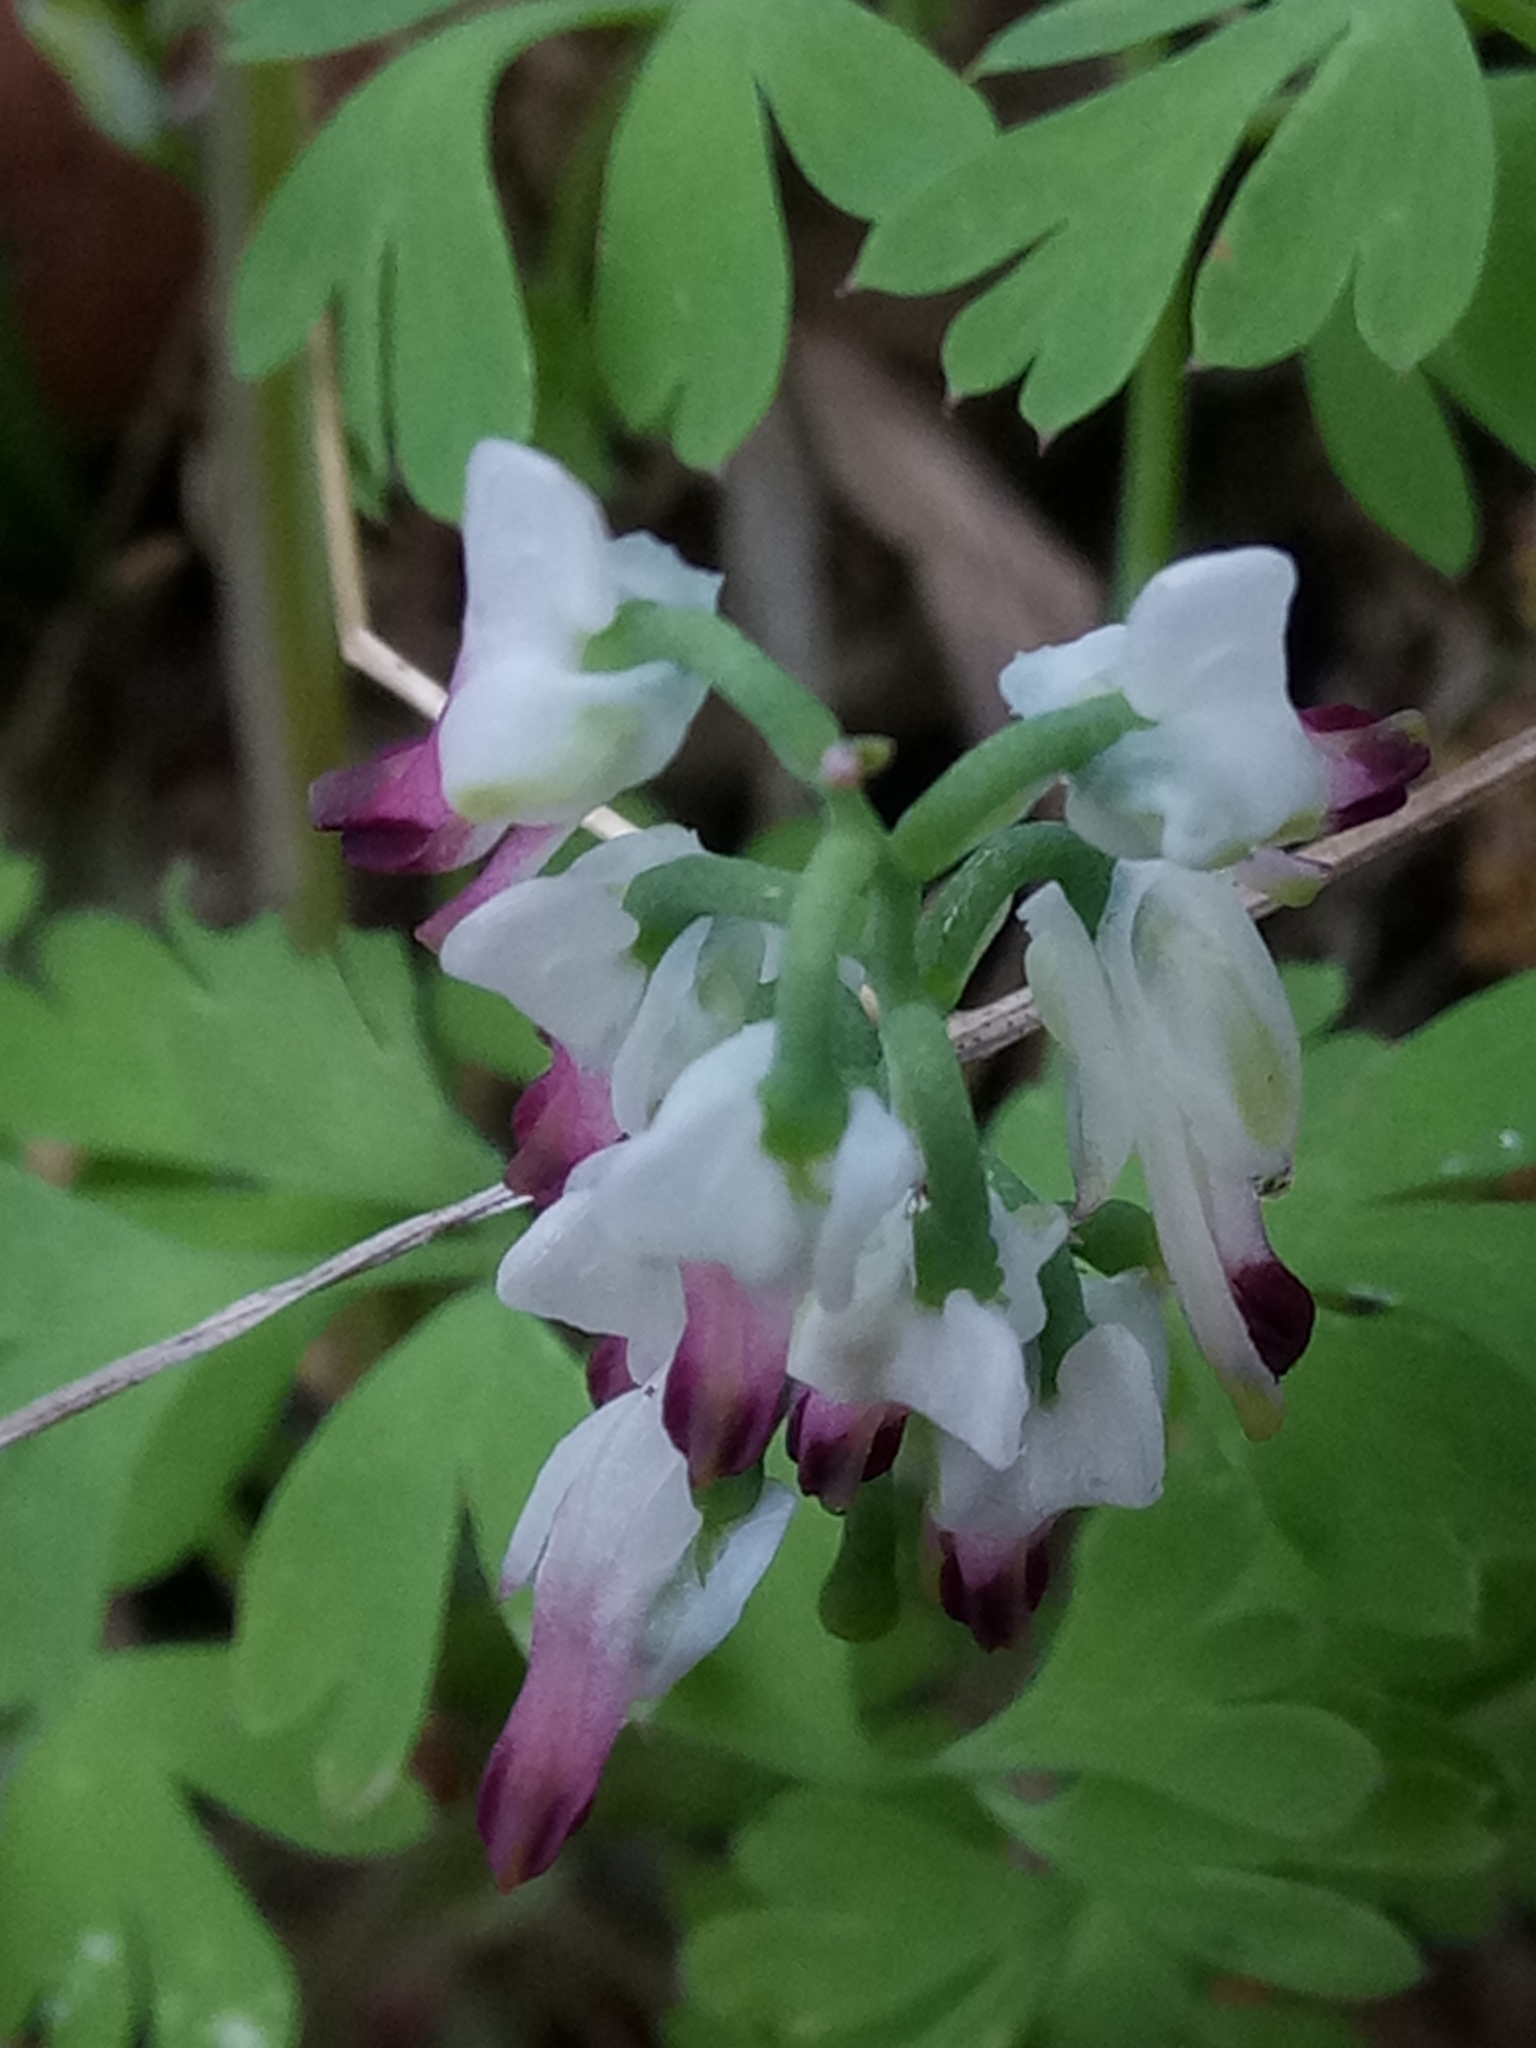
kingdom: Plantae
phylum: Tracheophyta
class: Magnoliopsida
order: Ranunculales
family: Papaveraceae
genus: Fumaria
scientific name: Fumaria capreolata
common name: White ramping-fumitory
